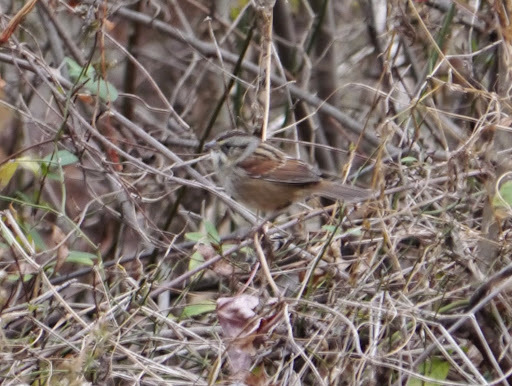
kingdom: Animalia
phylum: Chordata
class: Aves
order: Passeriformes
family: Passerellidae
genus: Melospiza
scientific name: Melospiza georgiana
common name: Swamp sparrow
